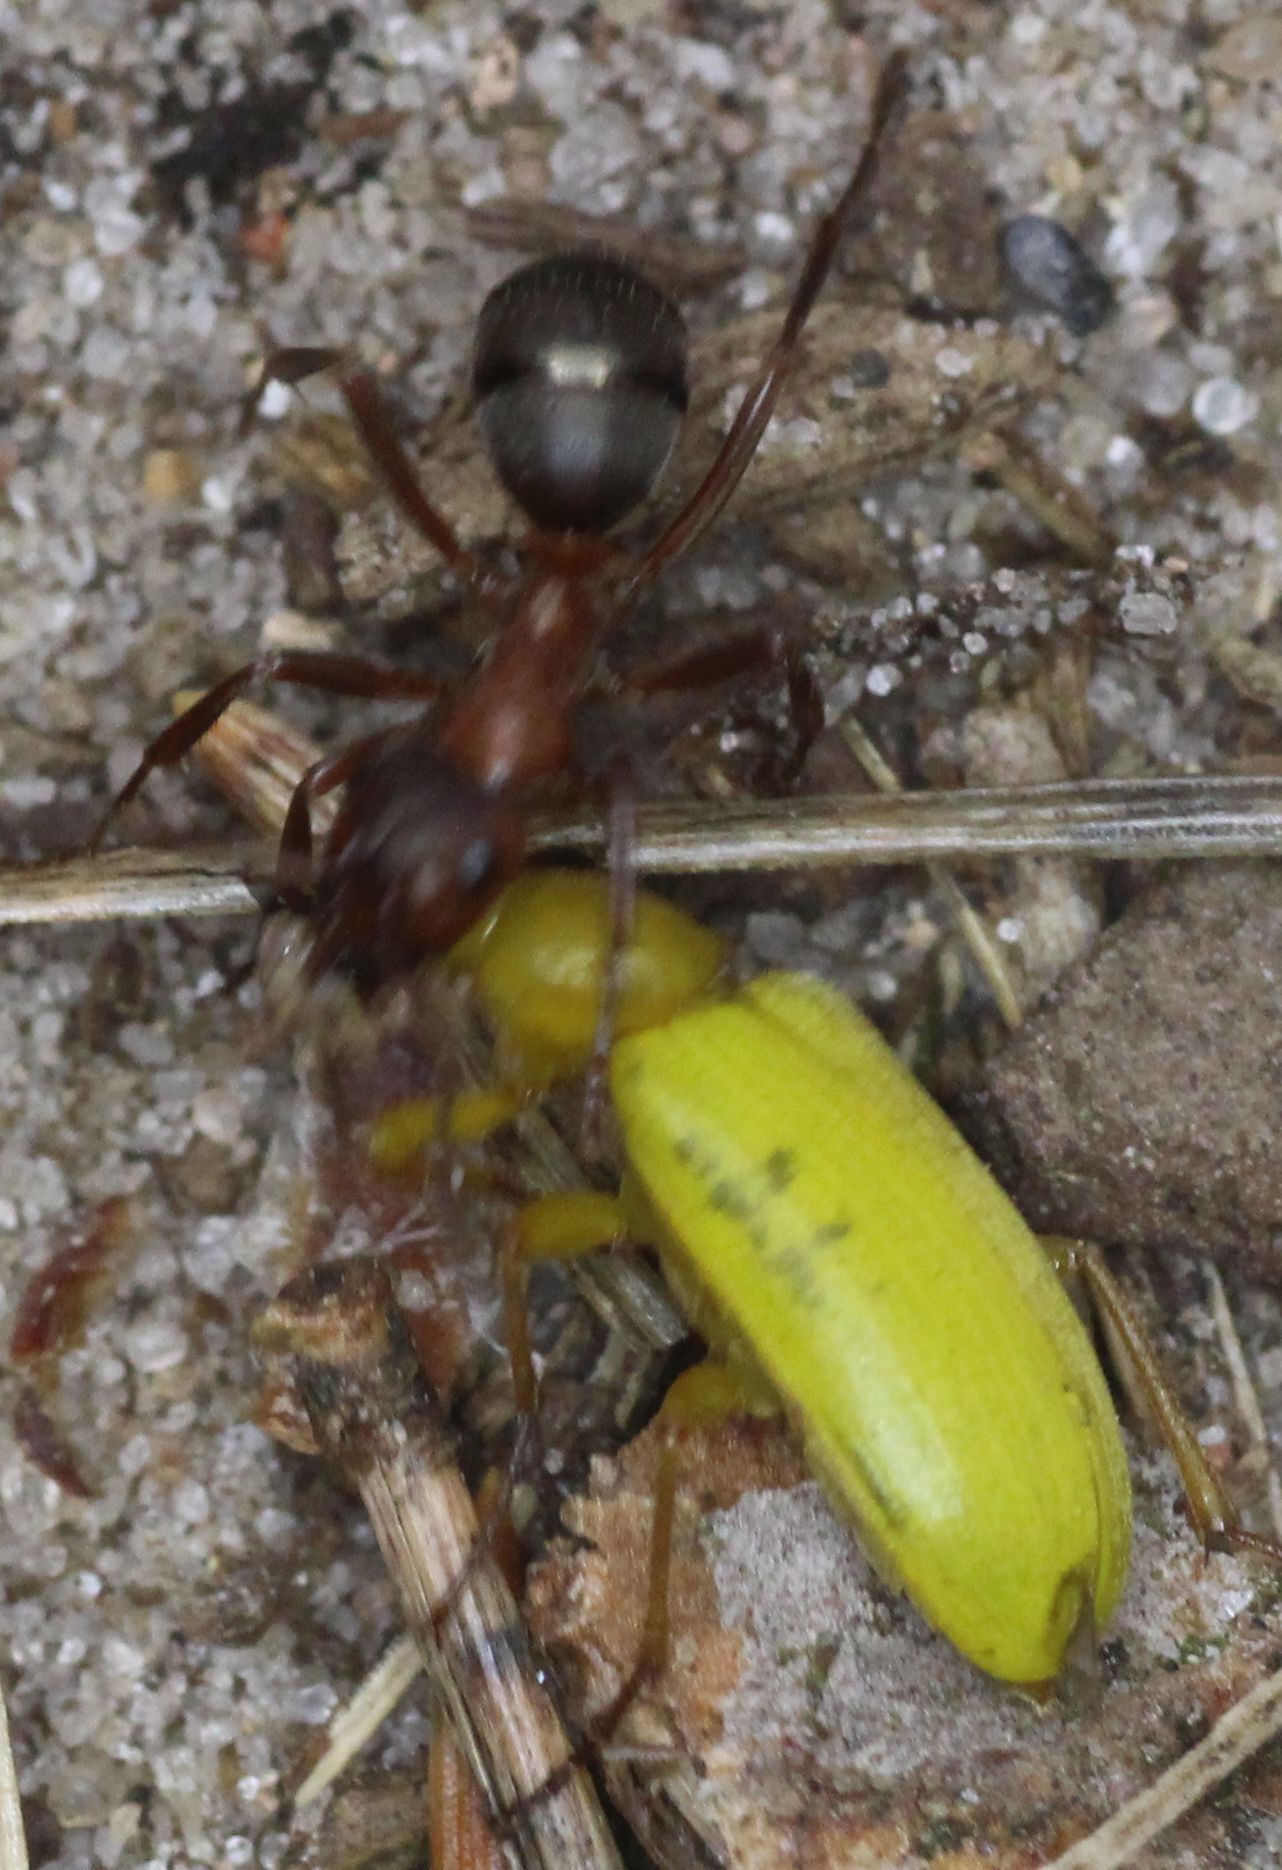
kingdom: Animalia
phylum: Arthropoda
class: Insecta
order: Hymenoptera
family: Formicidae
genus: Formica
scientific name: Formica sanguinea
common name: Blood-red ant
